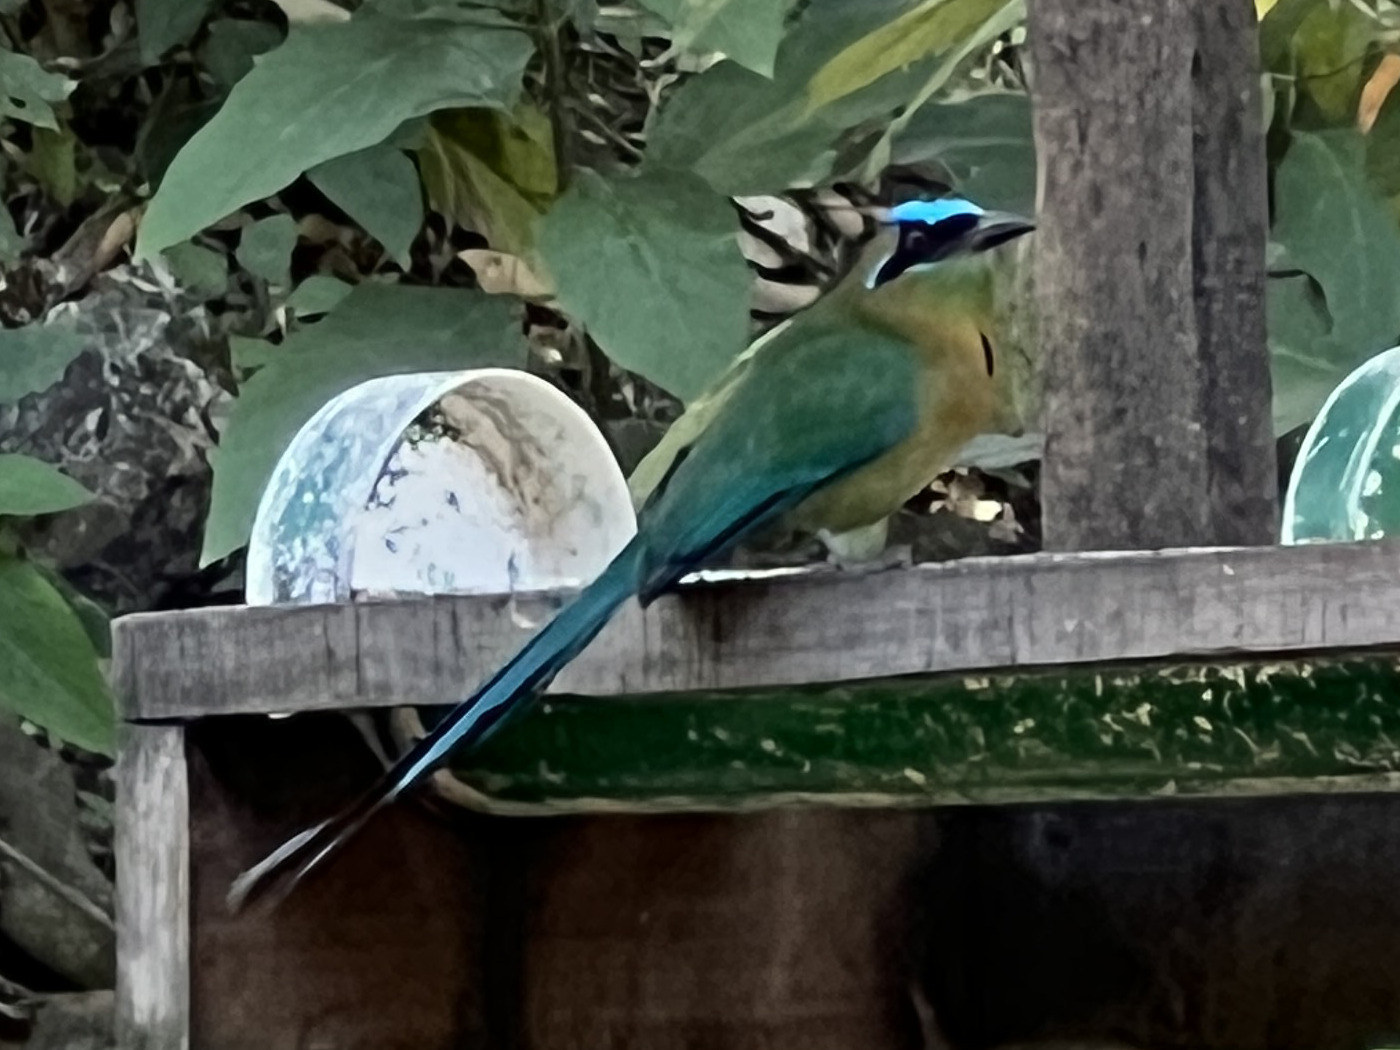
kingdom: Animalia
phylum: Chordata
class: Aves
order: Coraciiformes
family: Momotidae
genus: Momotus
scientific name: Momotus lessonii
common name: Lesson's motmot
